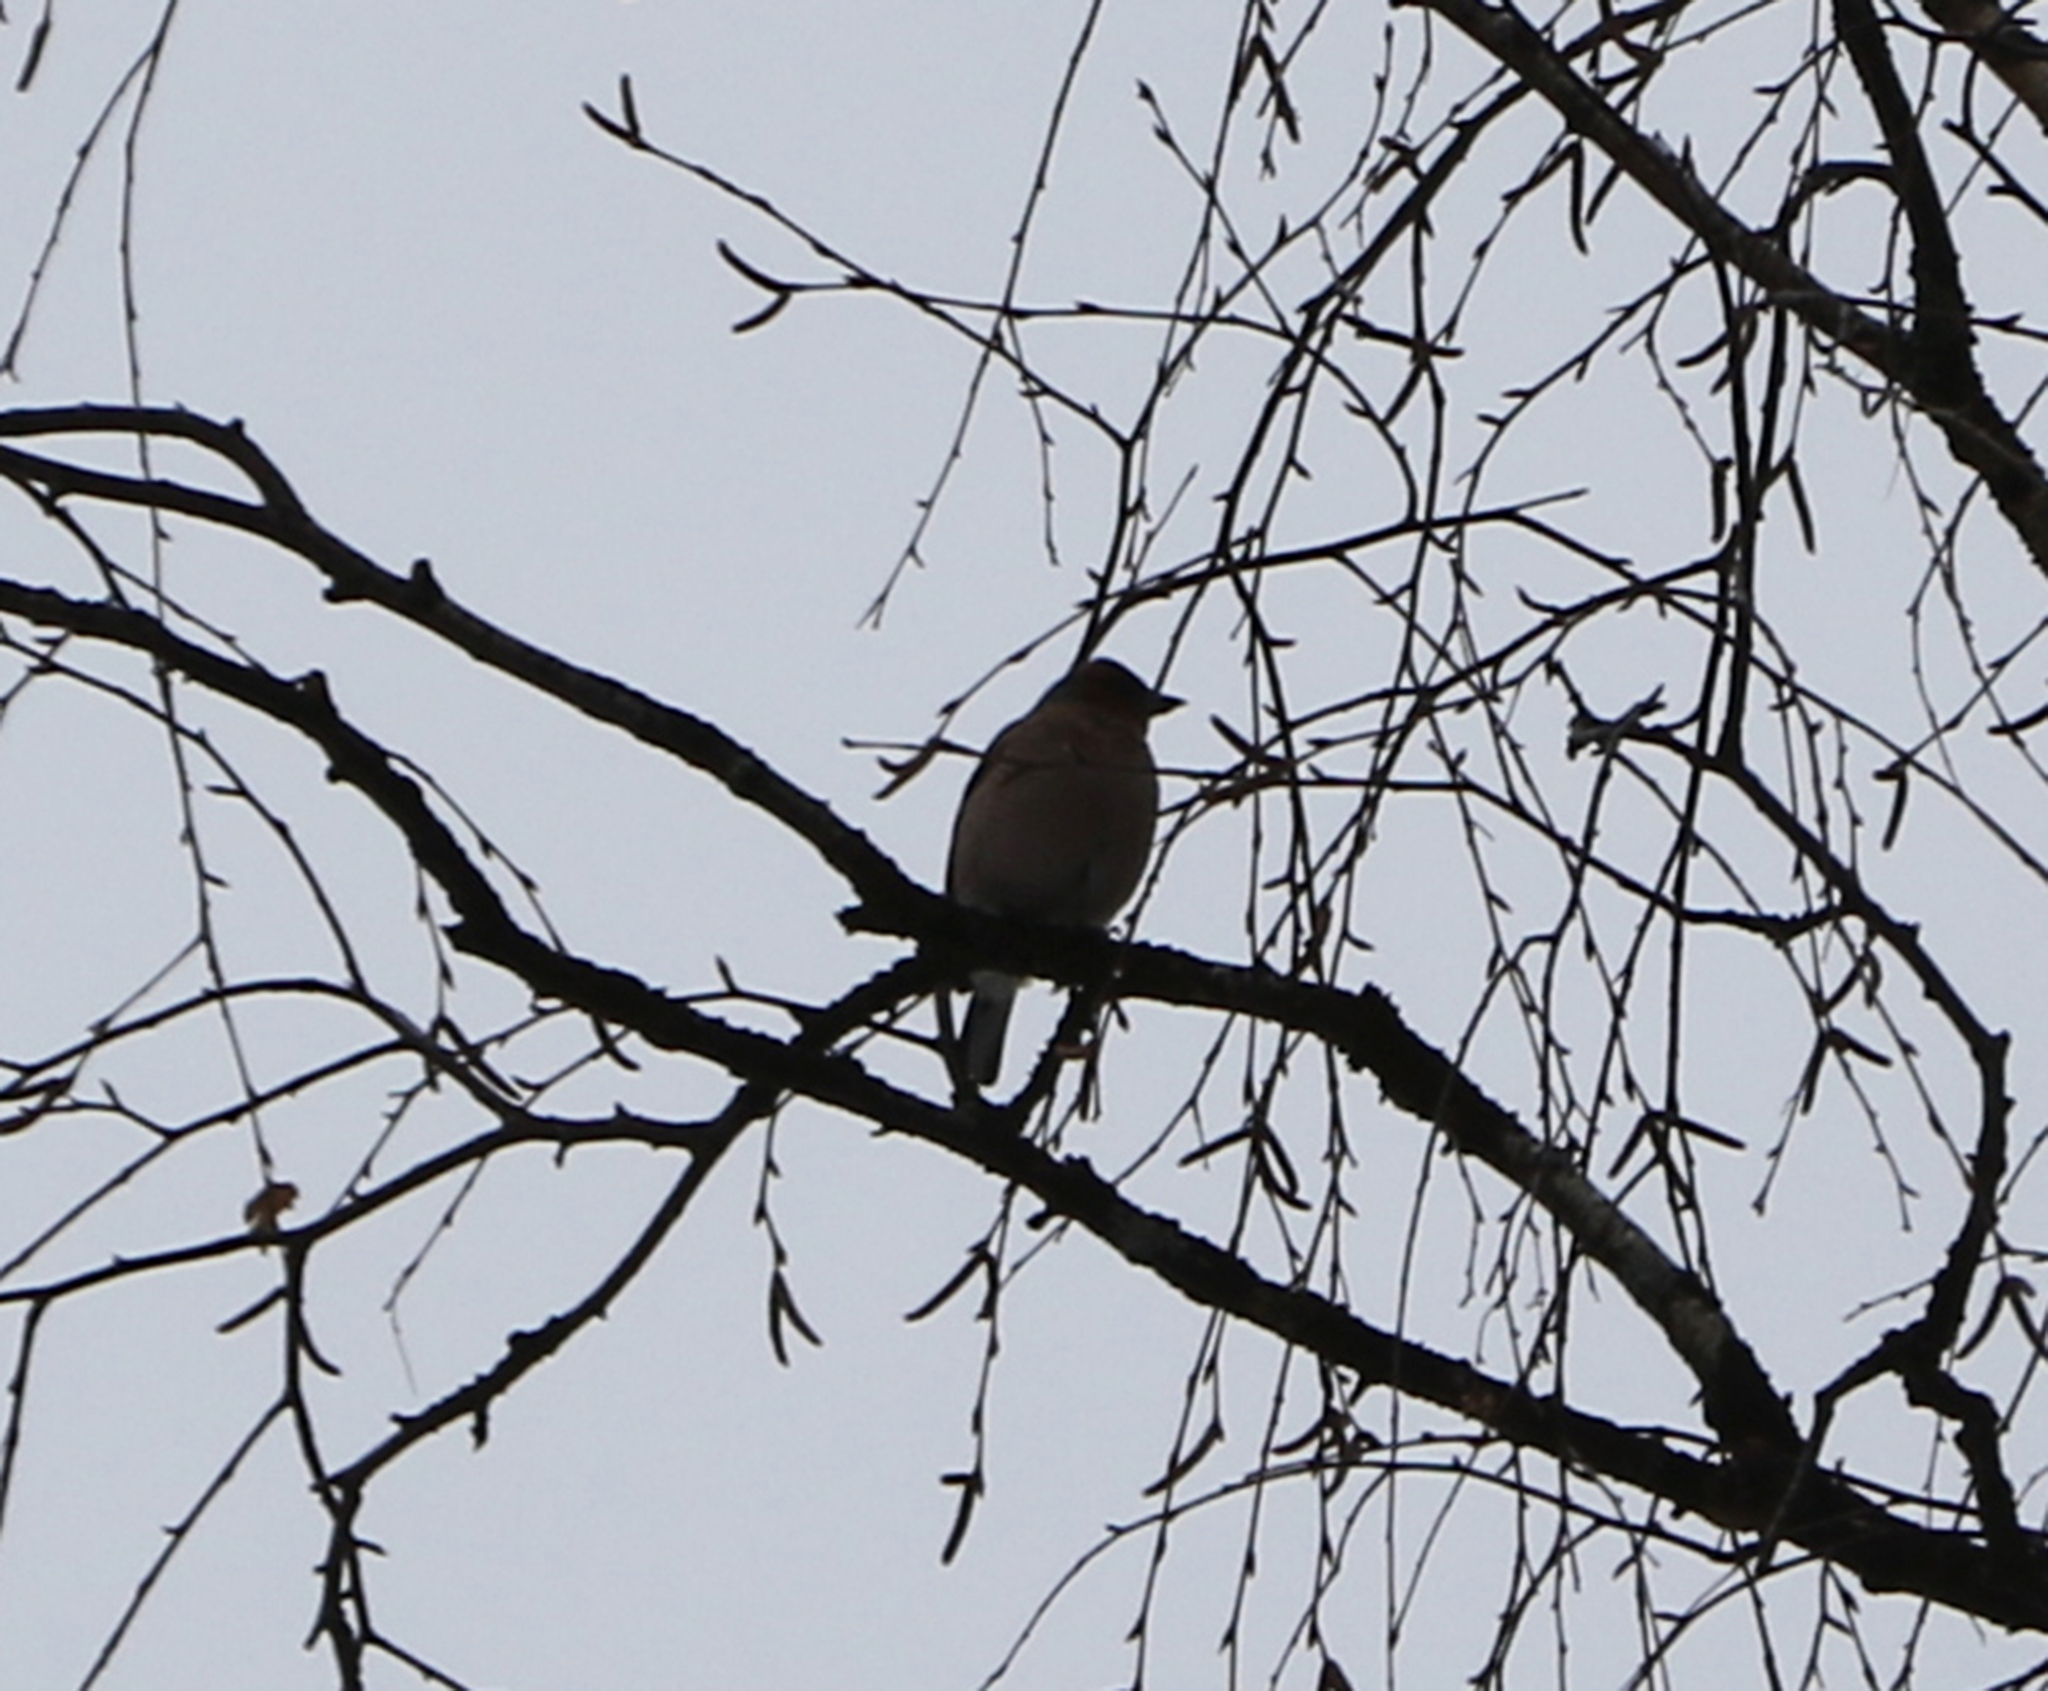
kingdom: Animalia
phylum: Chordata
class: Aves
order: Passeriformes
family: Fringillidae
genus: Fringilla
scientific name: Fringilla coelebs
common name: Common chaffinch
